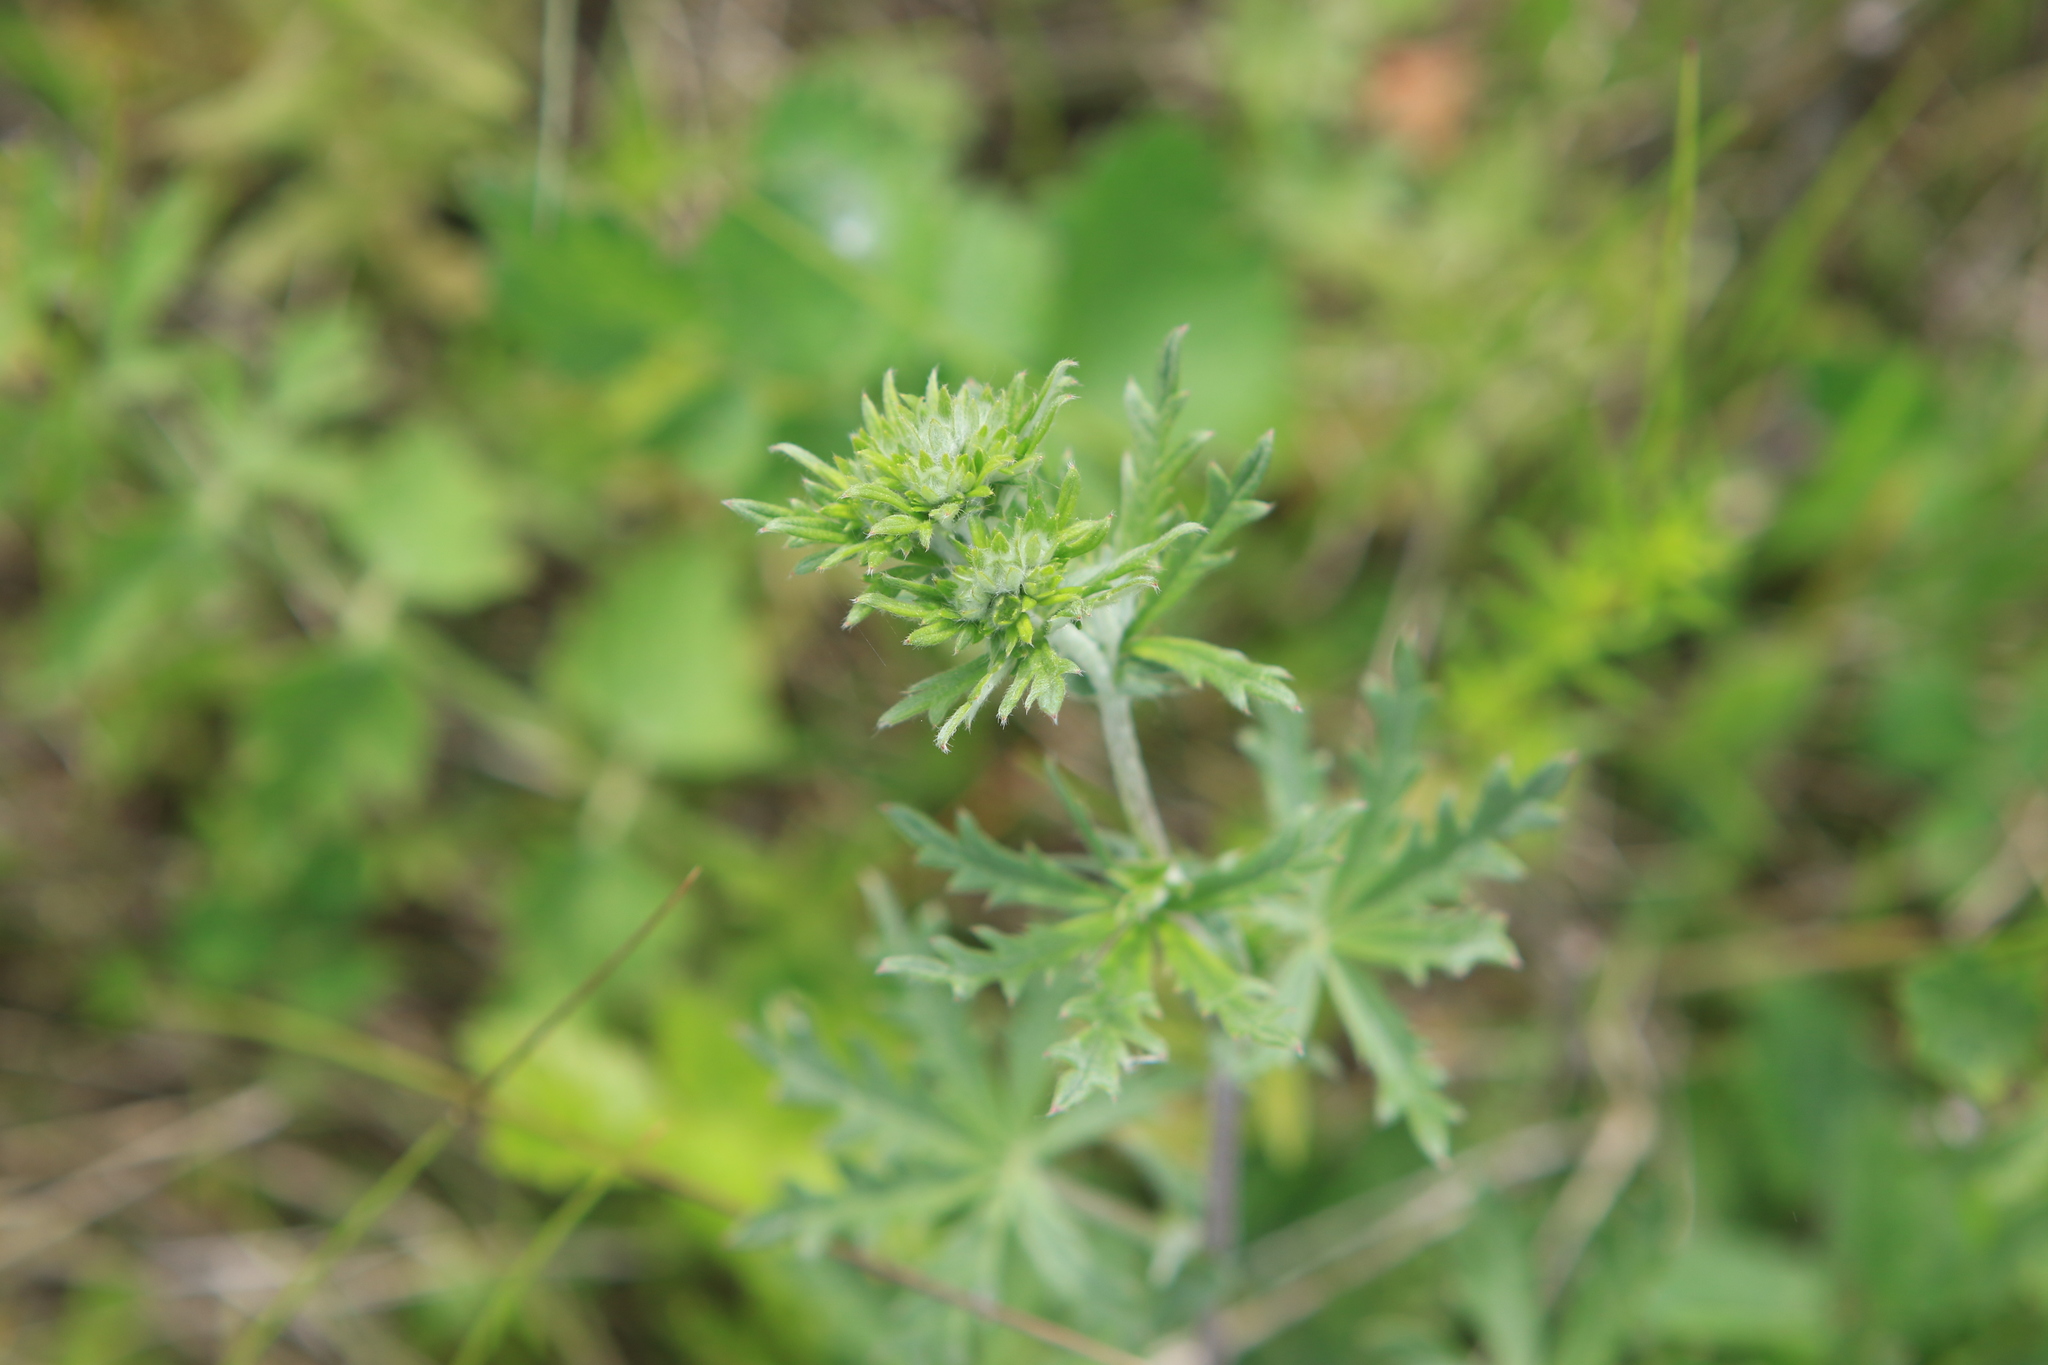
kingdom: Plantae
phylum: Tracheophyta
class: Magnoliopsida
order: Rosales
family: Rosaceae
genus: Potentilla
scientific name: Potentilla argentea
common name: Hoary cinquefoil
